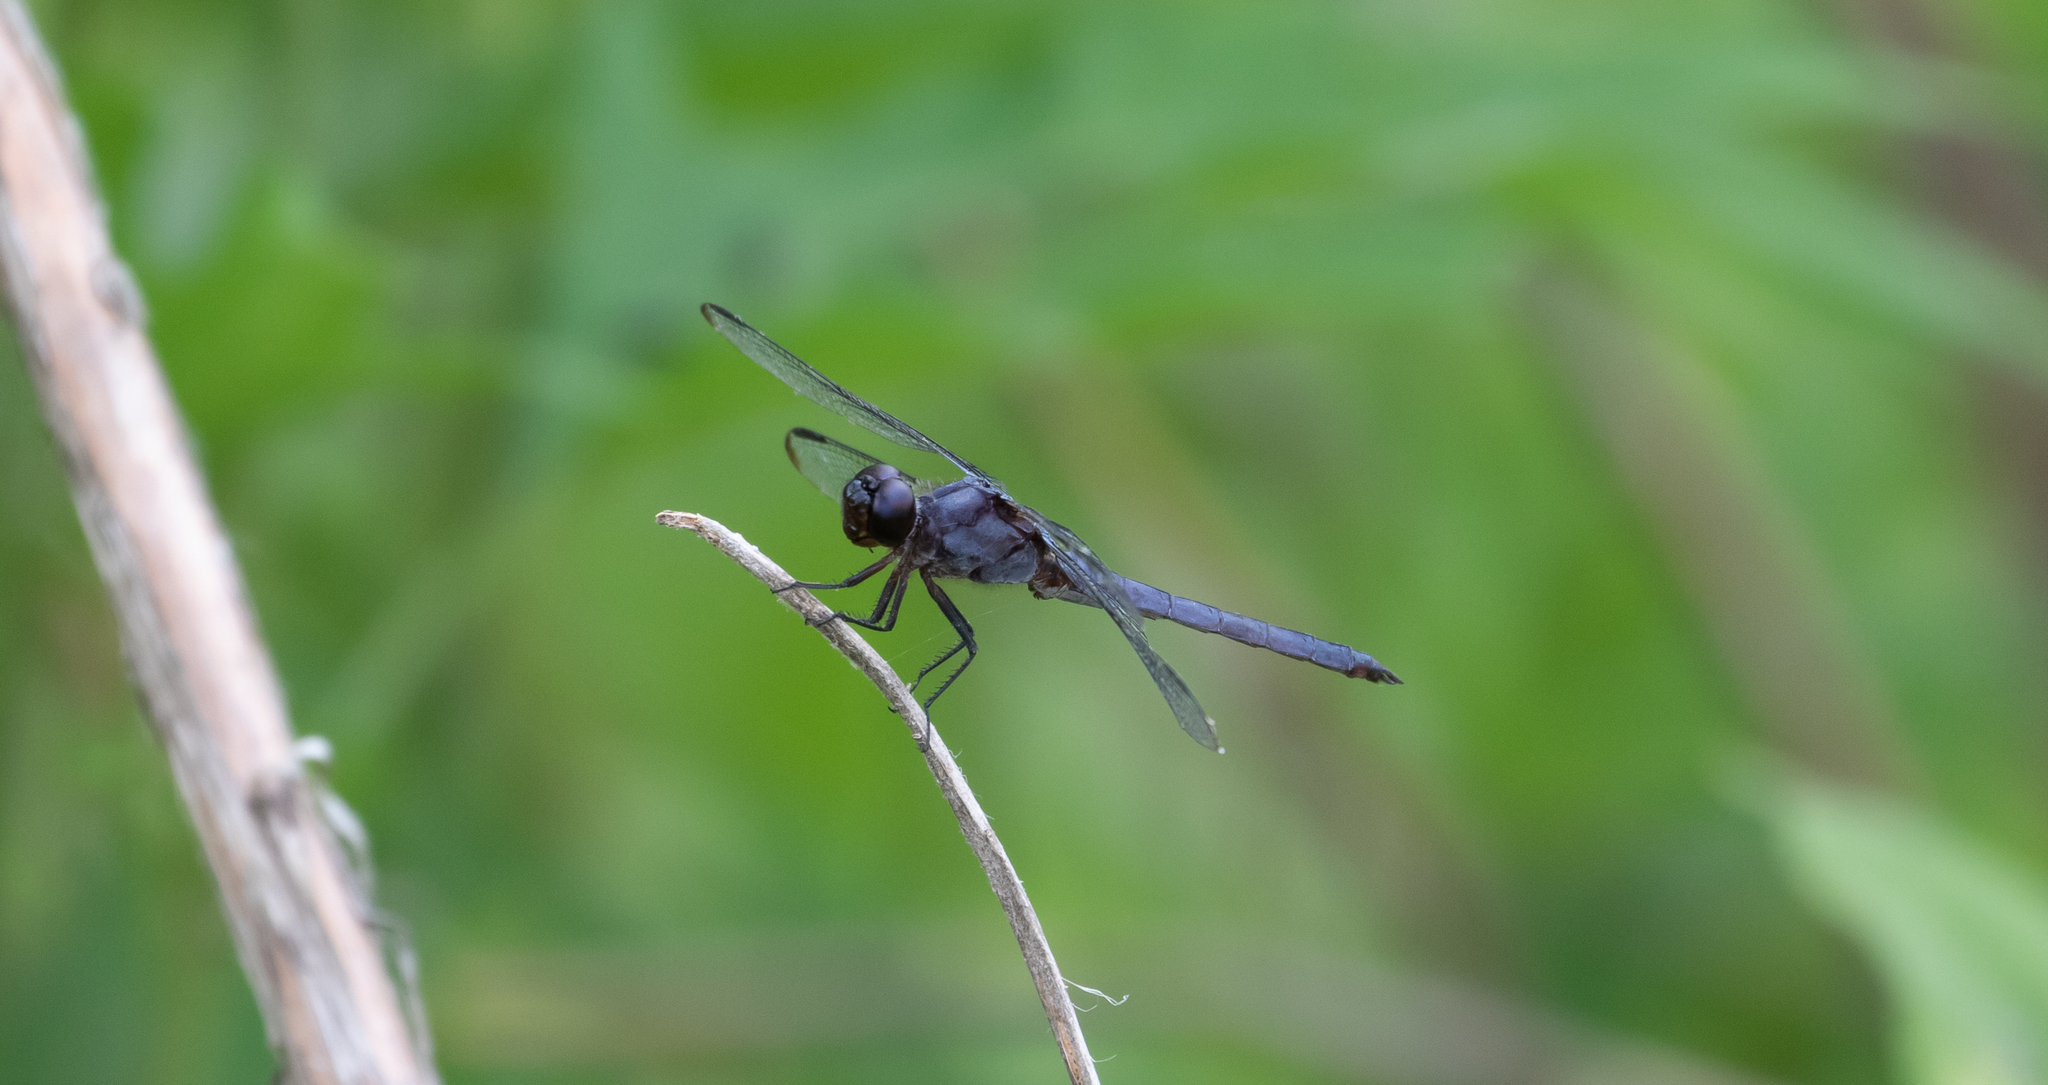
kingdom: Animalia
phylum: Arthropoda
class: Insecta
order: Odonata
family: Libellulidae
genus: Libellula
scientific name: Libellula incesta
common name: Slaty skimmer
